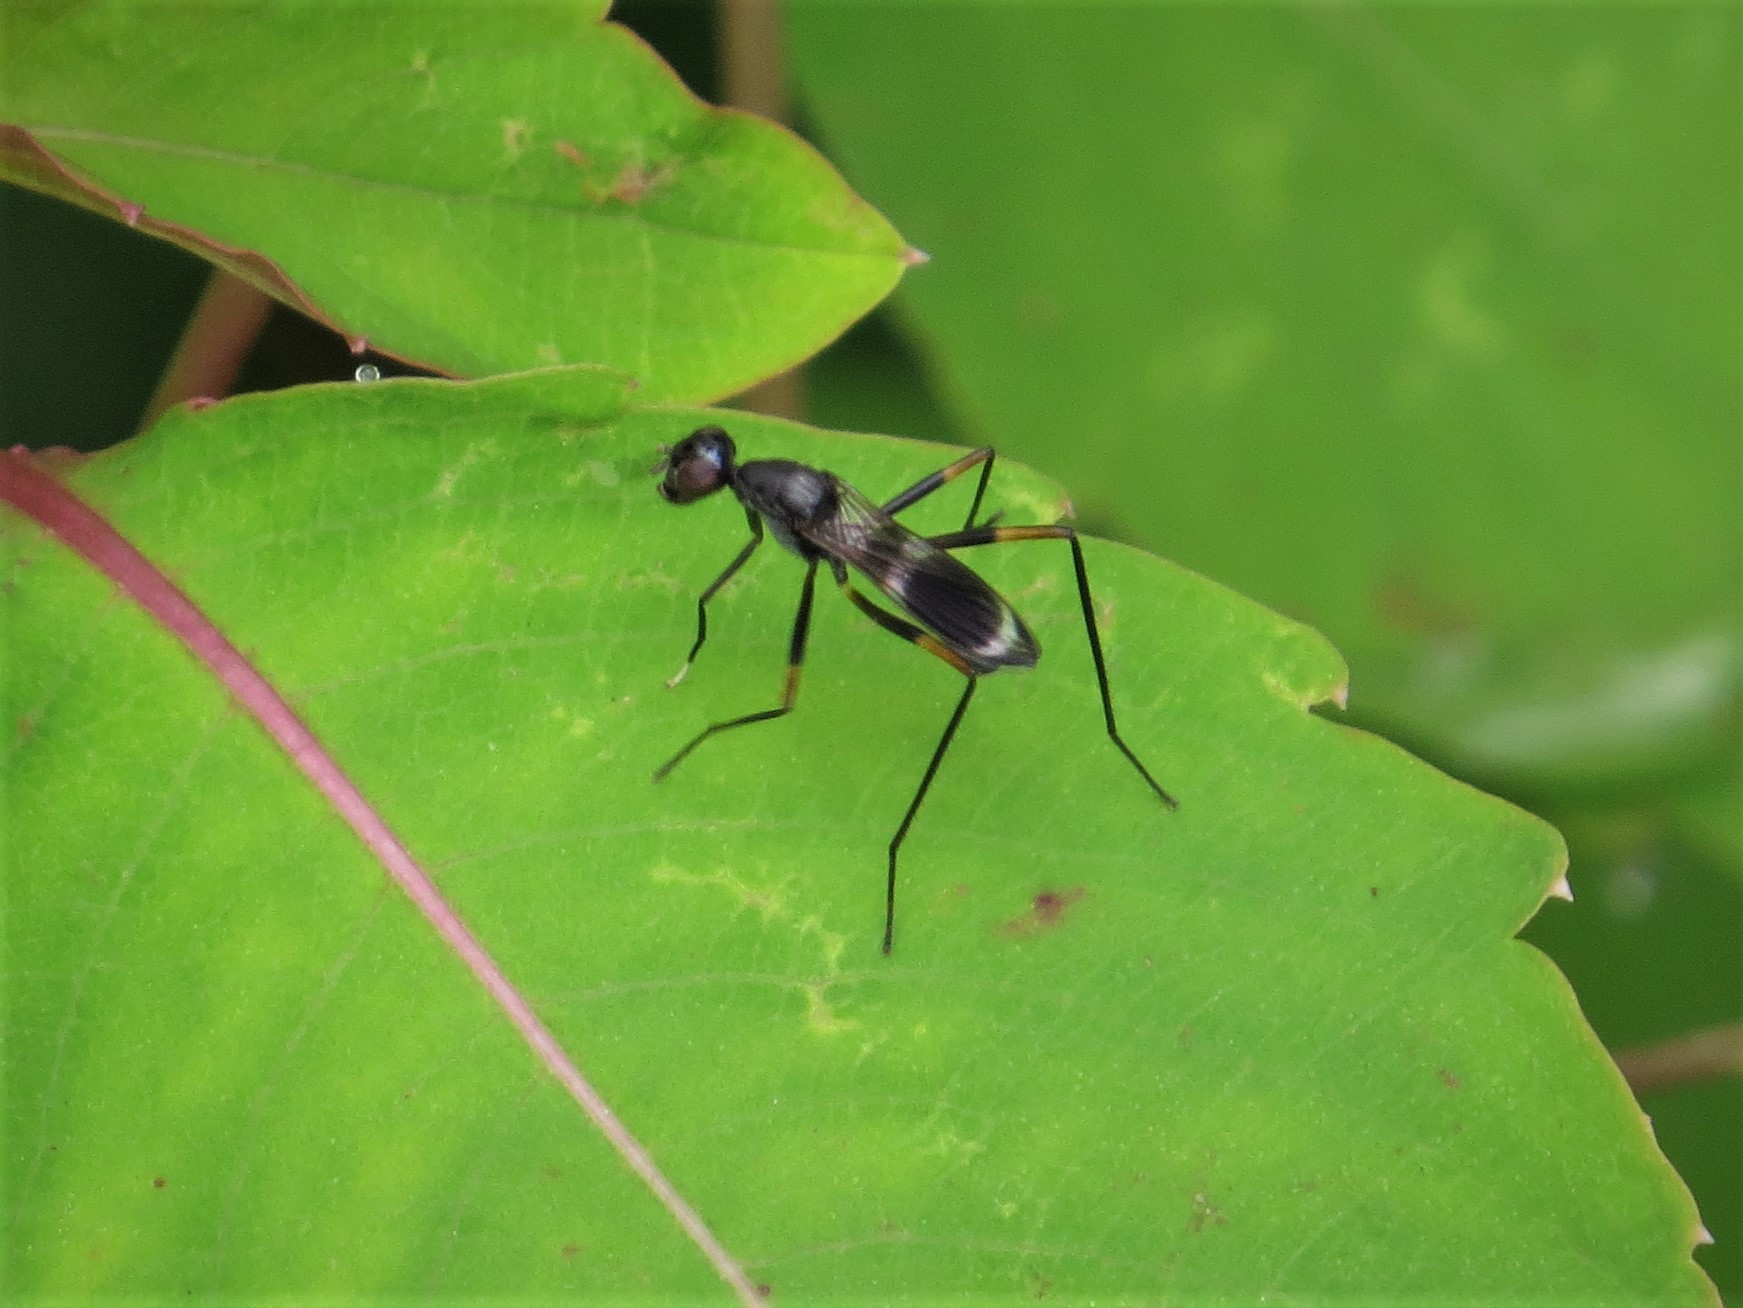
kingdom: Animalia
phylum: Arthropoda
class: Insecta
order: Diptera
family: Micropezidae
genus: Taeniaptera
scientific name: Taeniaptera trivittata
